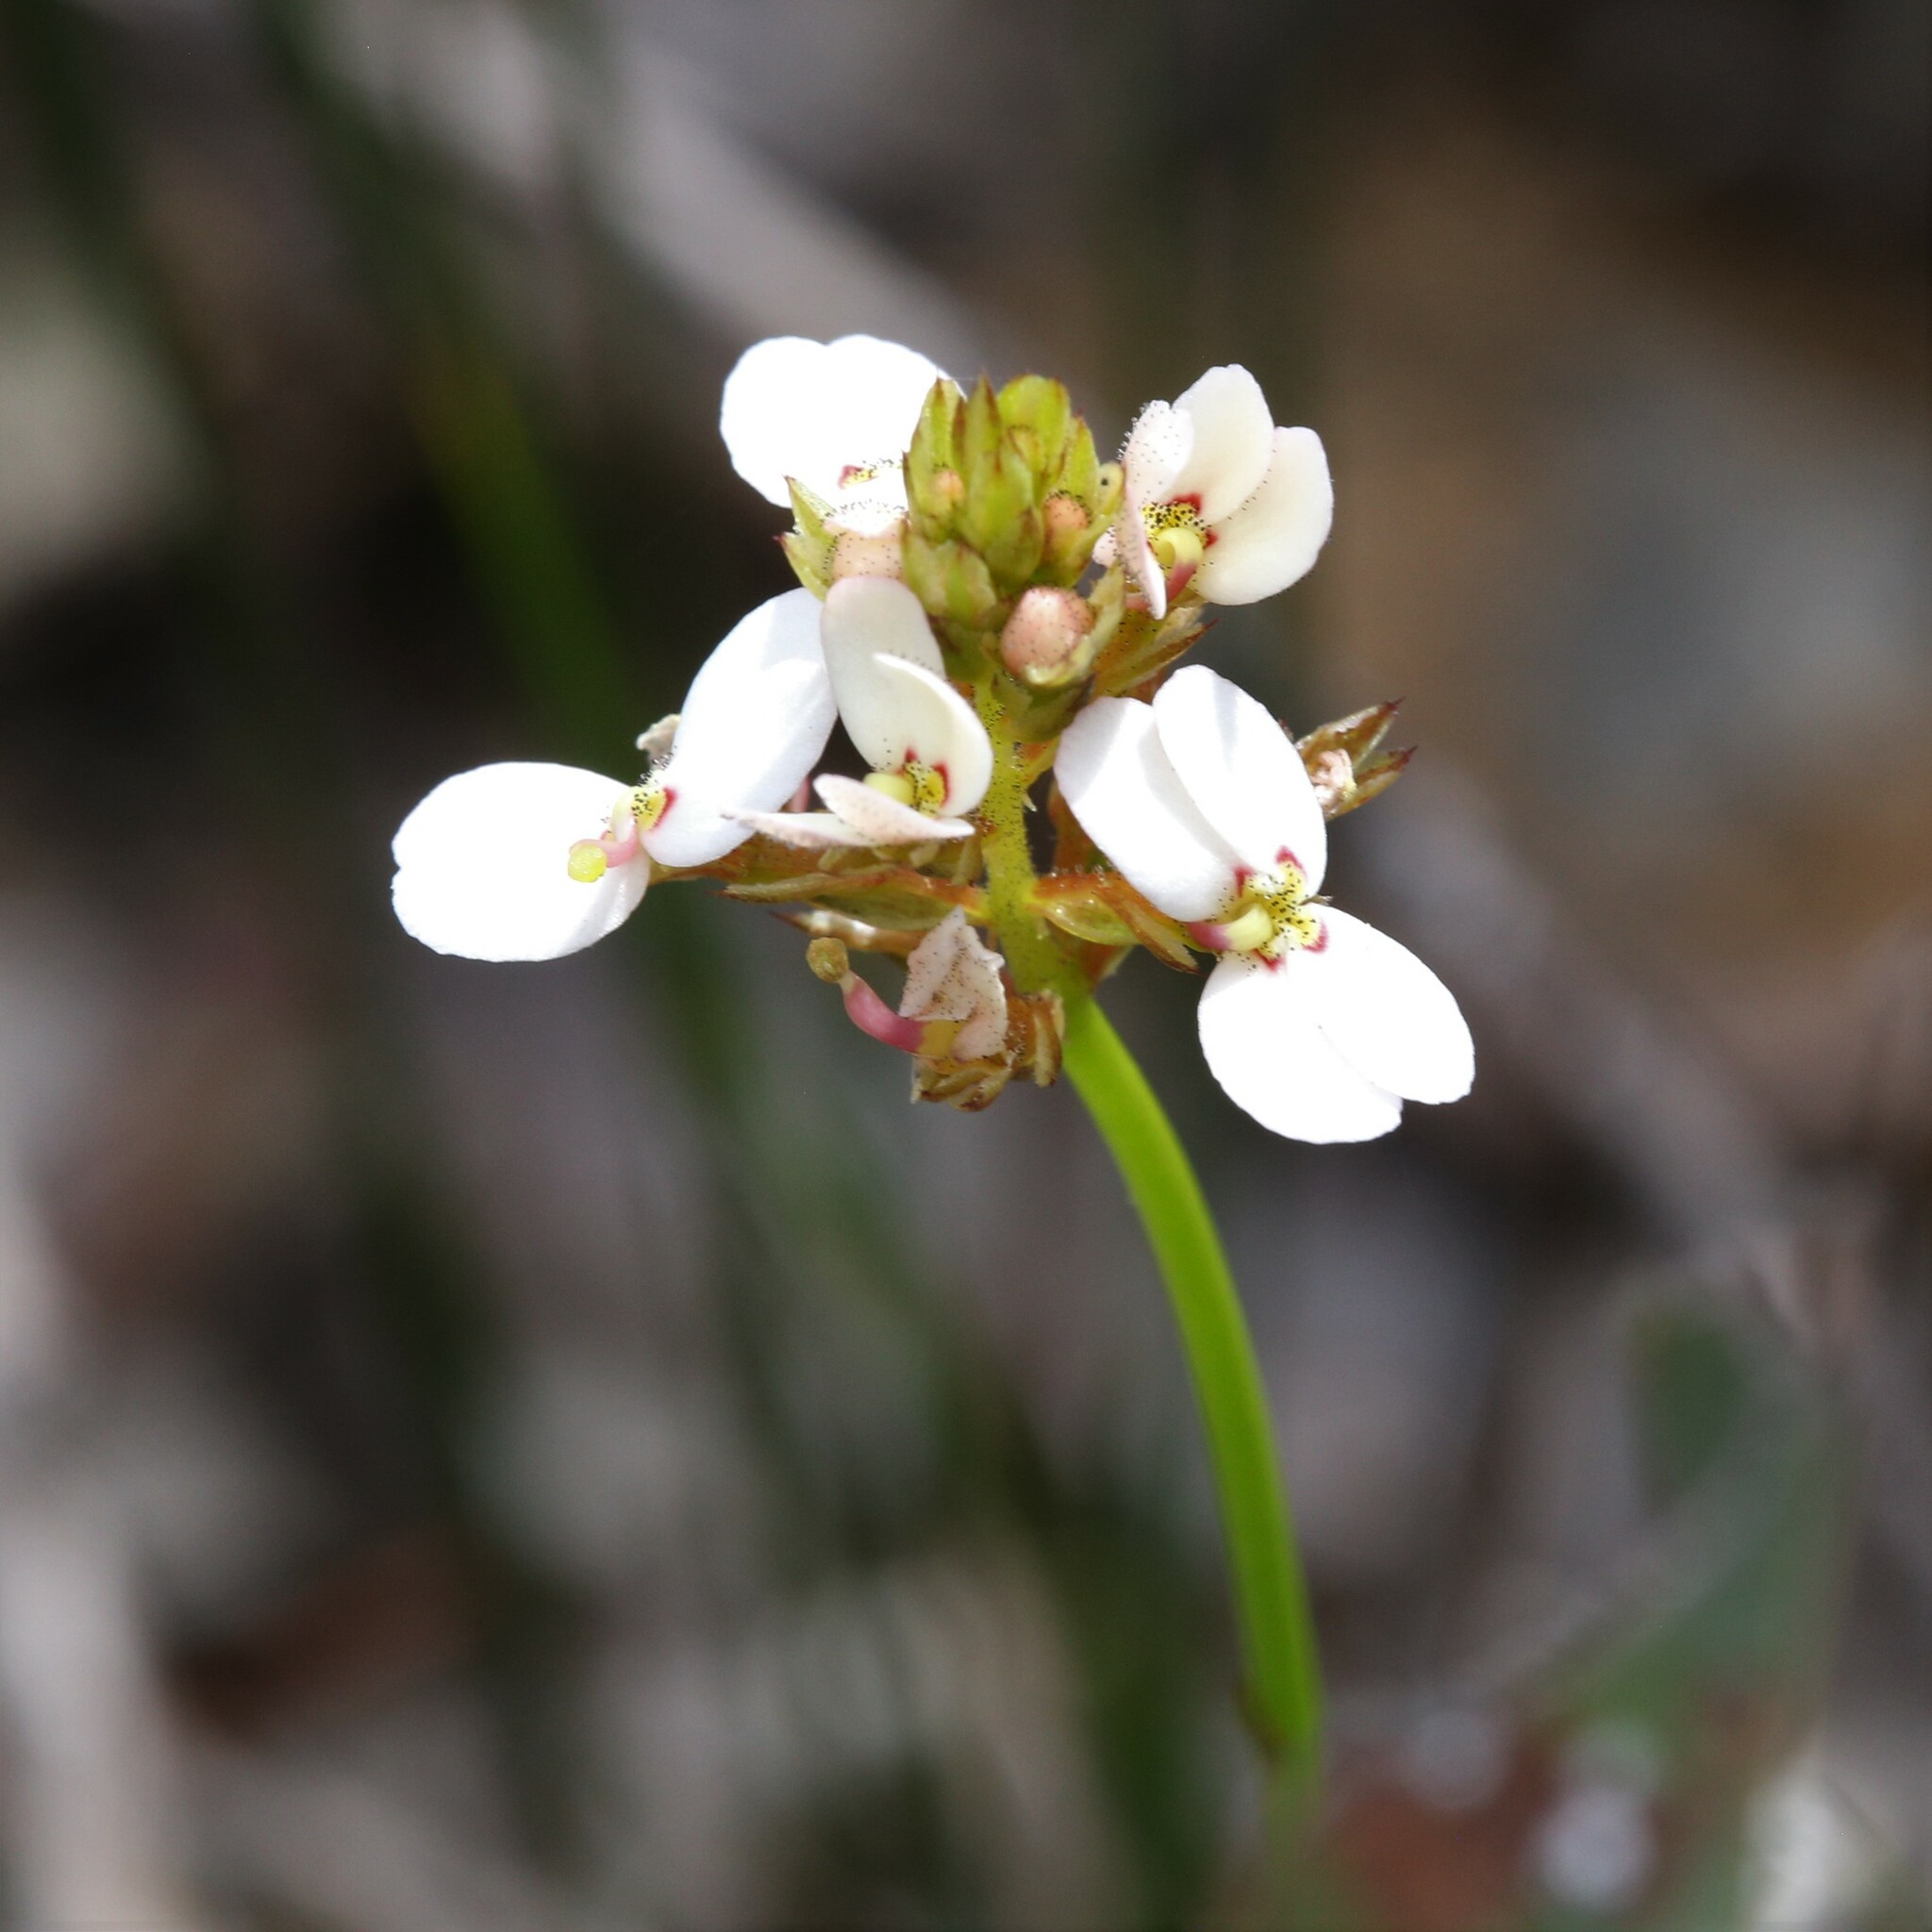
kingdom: Plantae
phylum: Tracheophyta
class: Magnoliopsida
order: Asterales
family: Stylidiaceae
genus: Stylidium
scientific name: Stylidium scariosum
